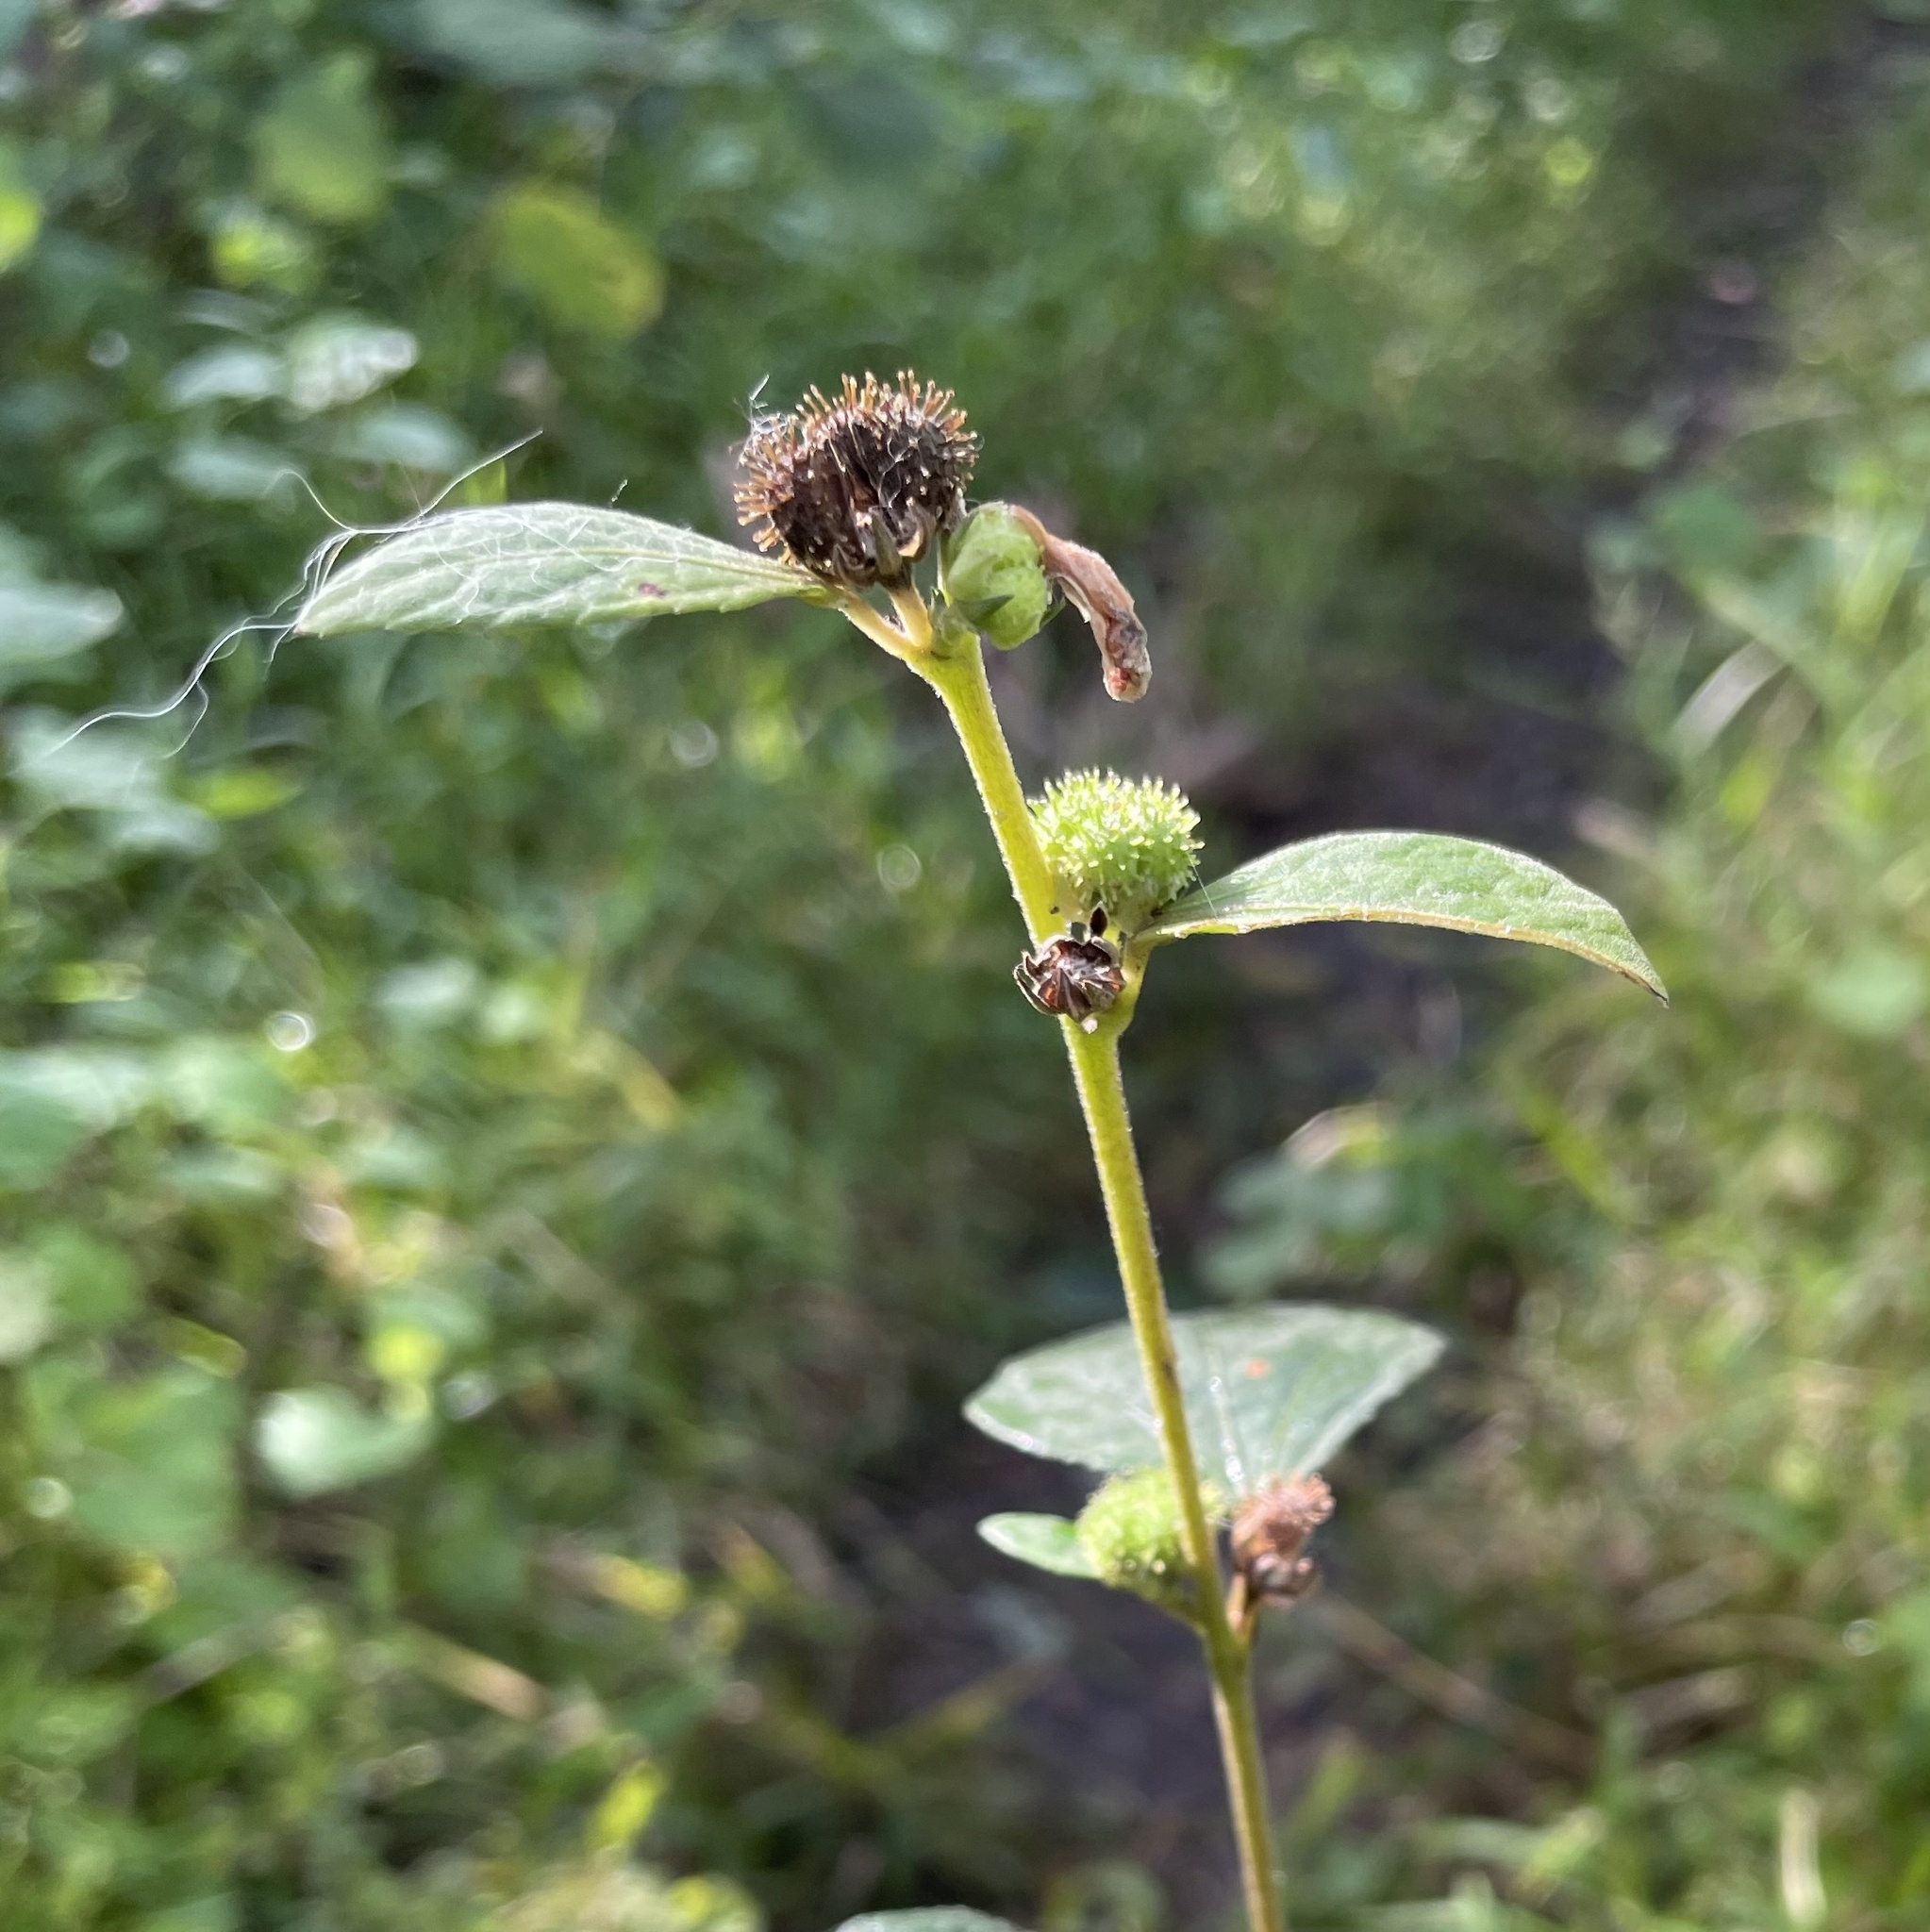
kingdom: Plantae
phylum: Tracheophyta
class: Magnoliopsida
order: Malvales
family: Malvaceae
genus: Urena
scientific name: Urena lobata
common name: Caesarweed
